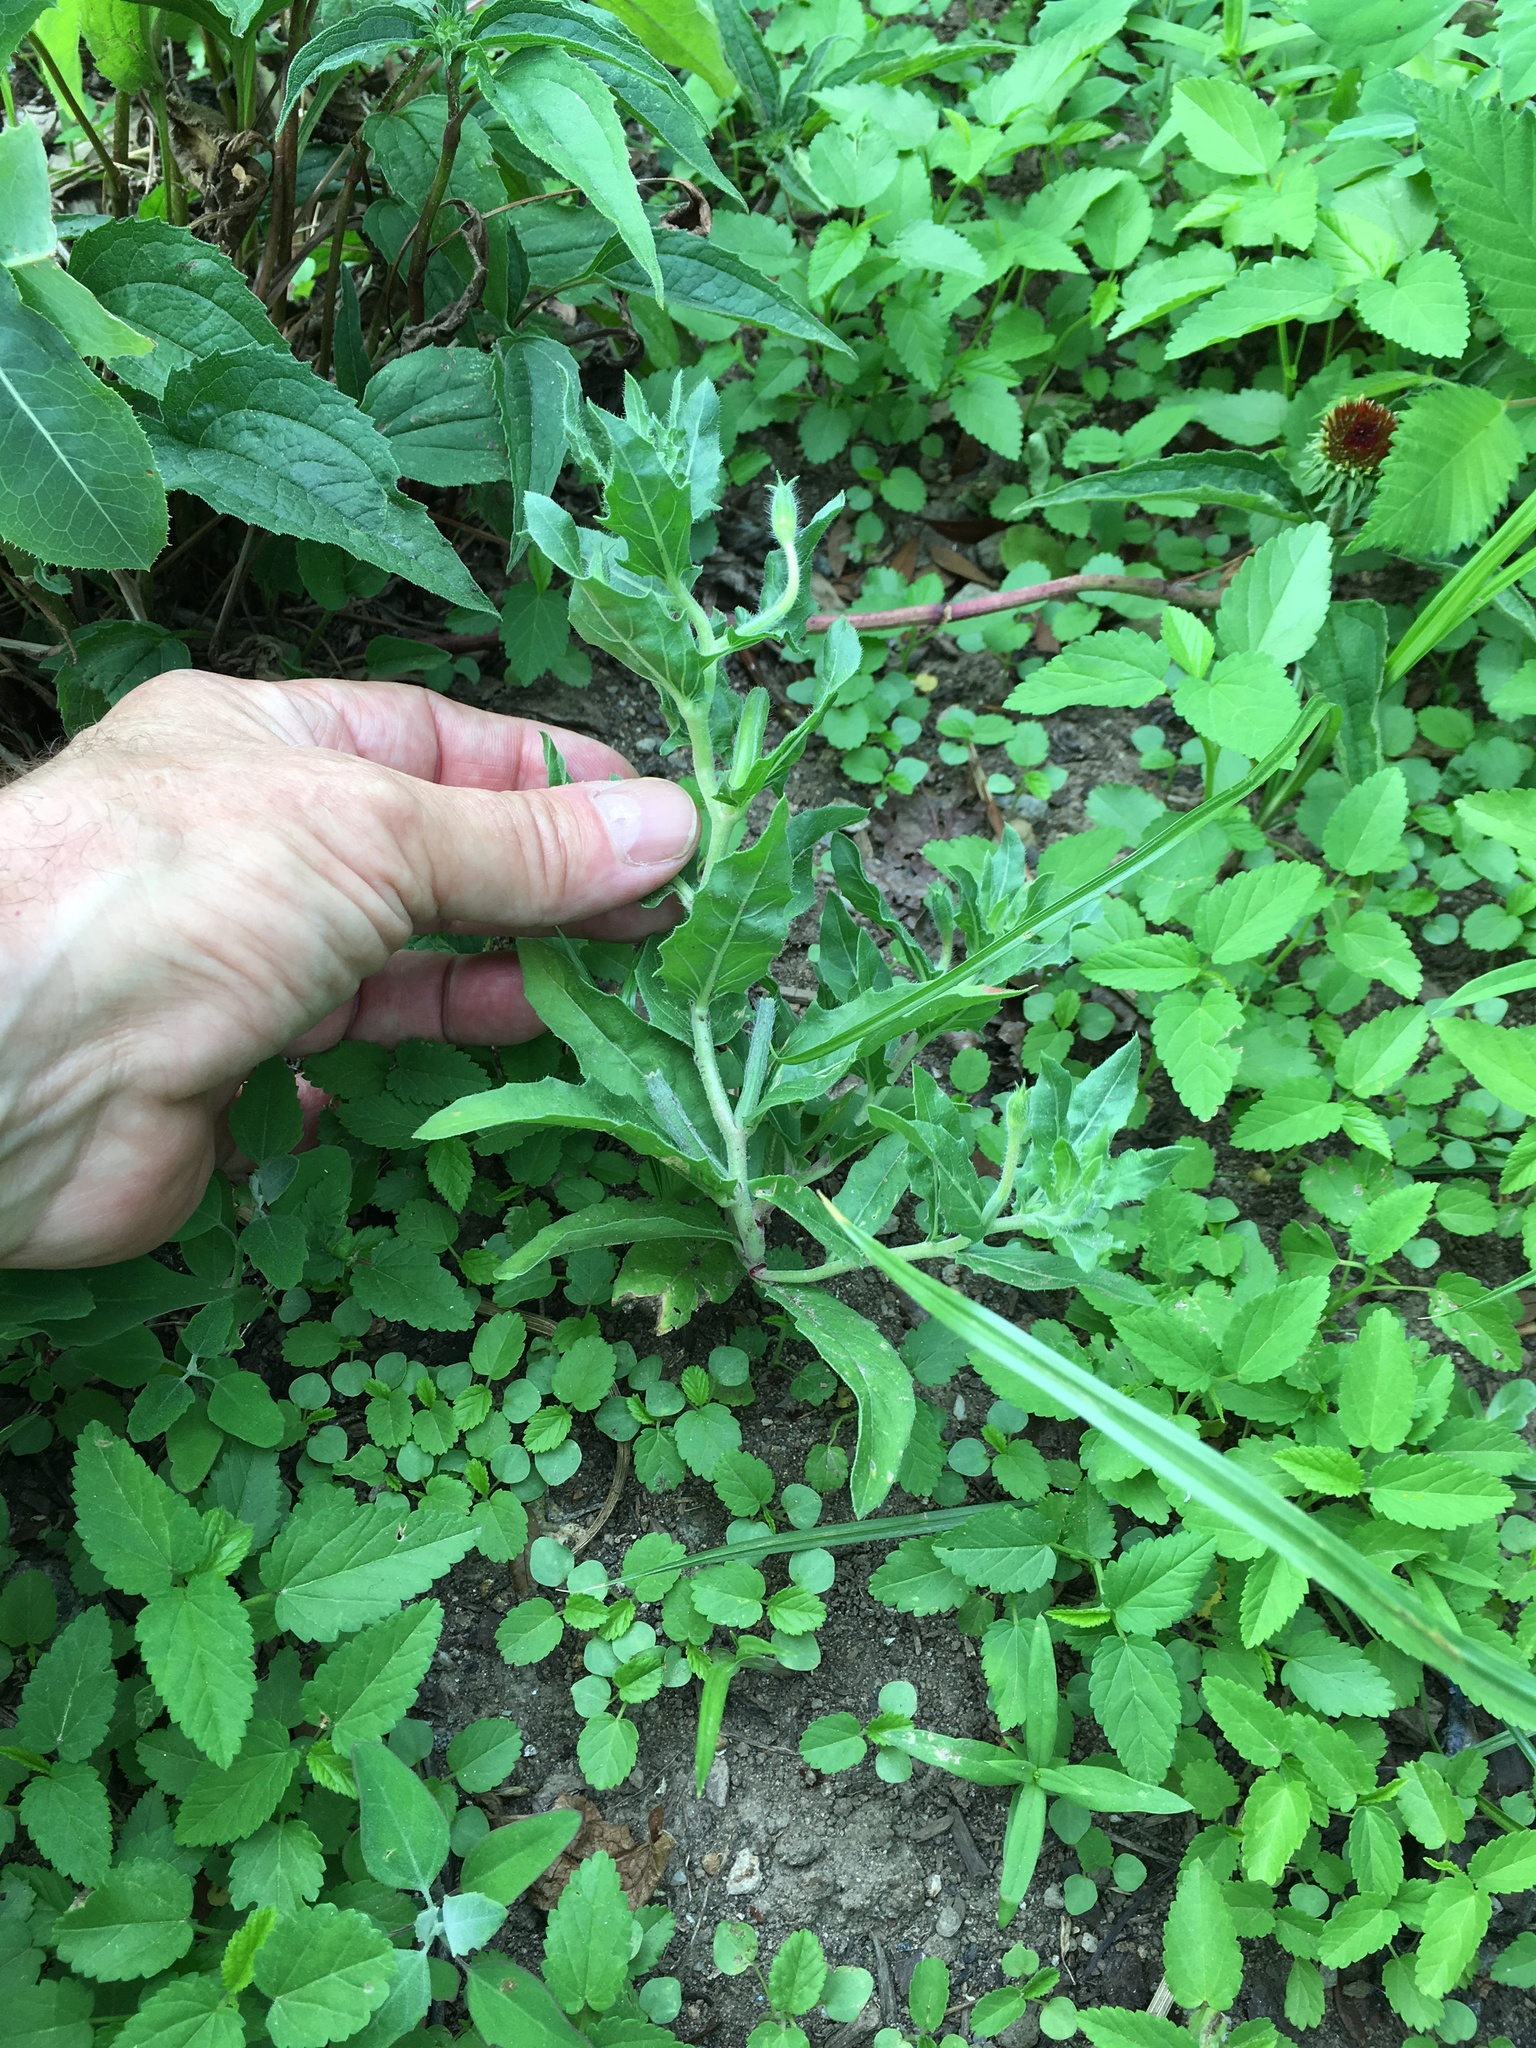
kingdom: Plantae
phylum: Tracheophyta
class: Magnoliopsida
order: Myrtales
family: Onagraceae
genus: Oenothera
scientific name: Oenothera laciniata
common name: Cut-leaved evening-primrose
